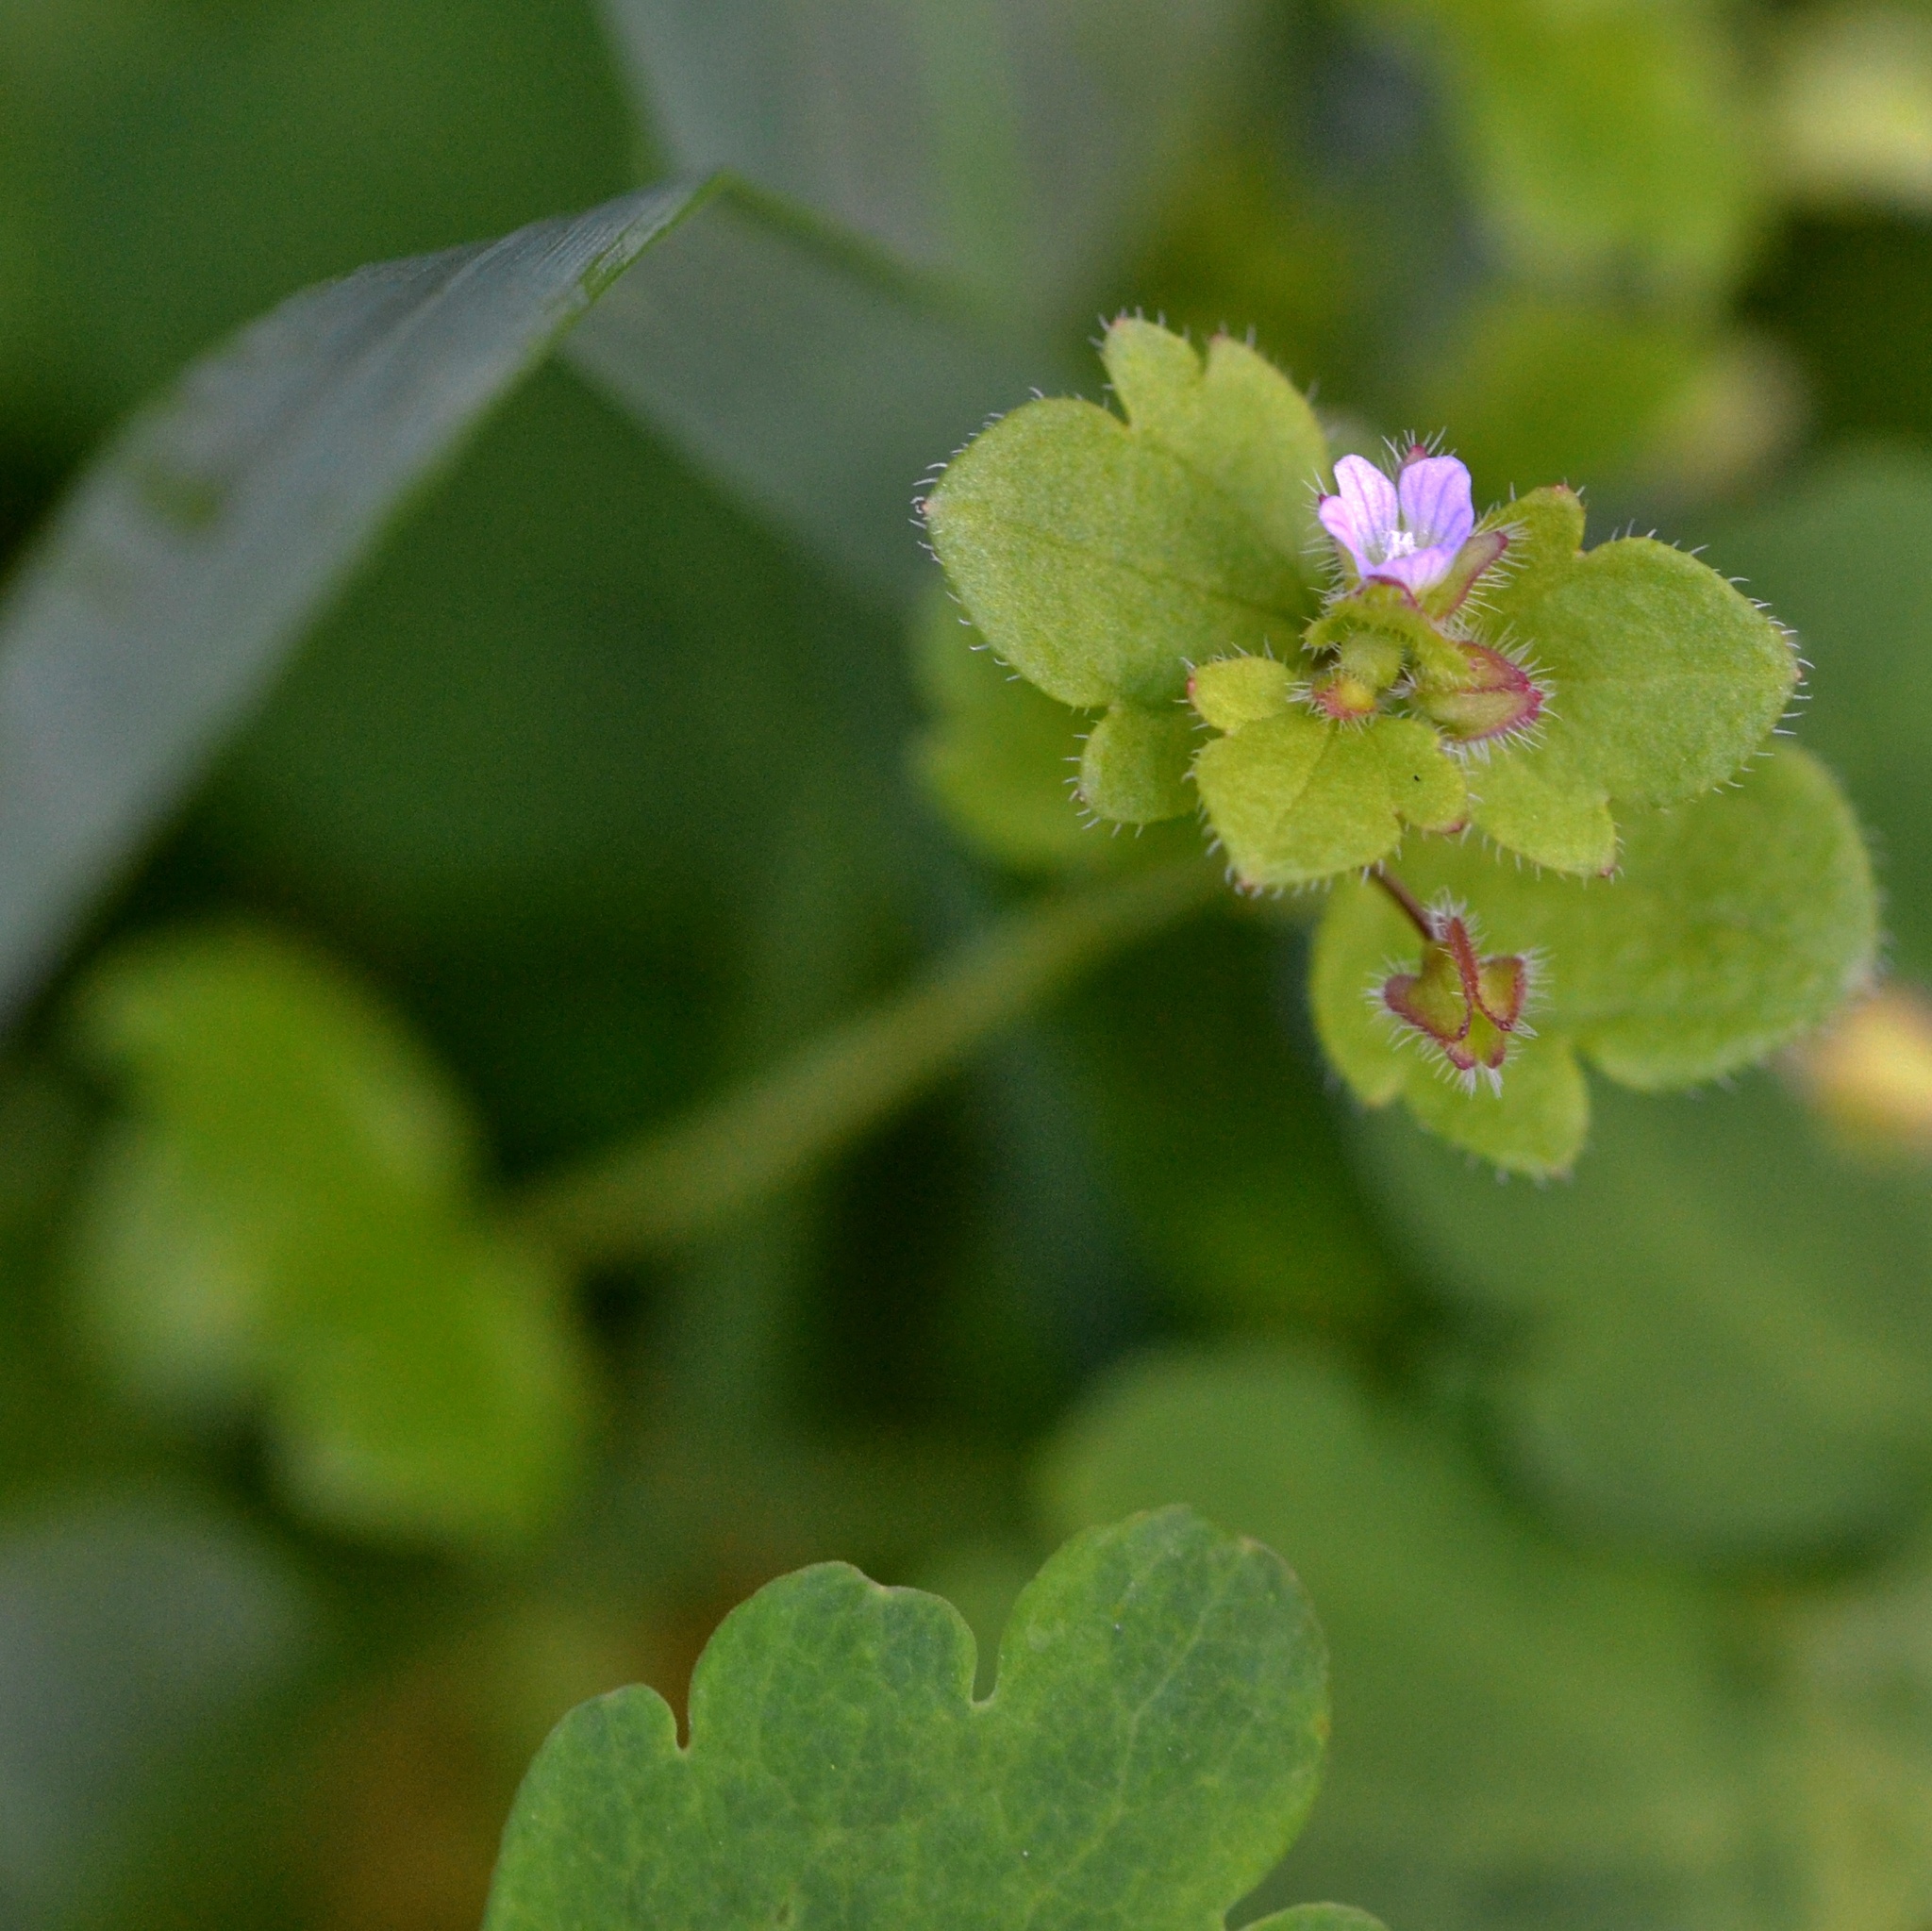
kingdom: Plantae
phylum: Tracheophyta
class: Magnoliopsida
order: Lamiales
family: Plantaginaceae
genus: Veronica
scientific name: Veronica sublobata
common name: False ivy-leaved speedwell
